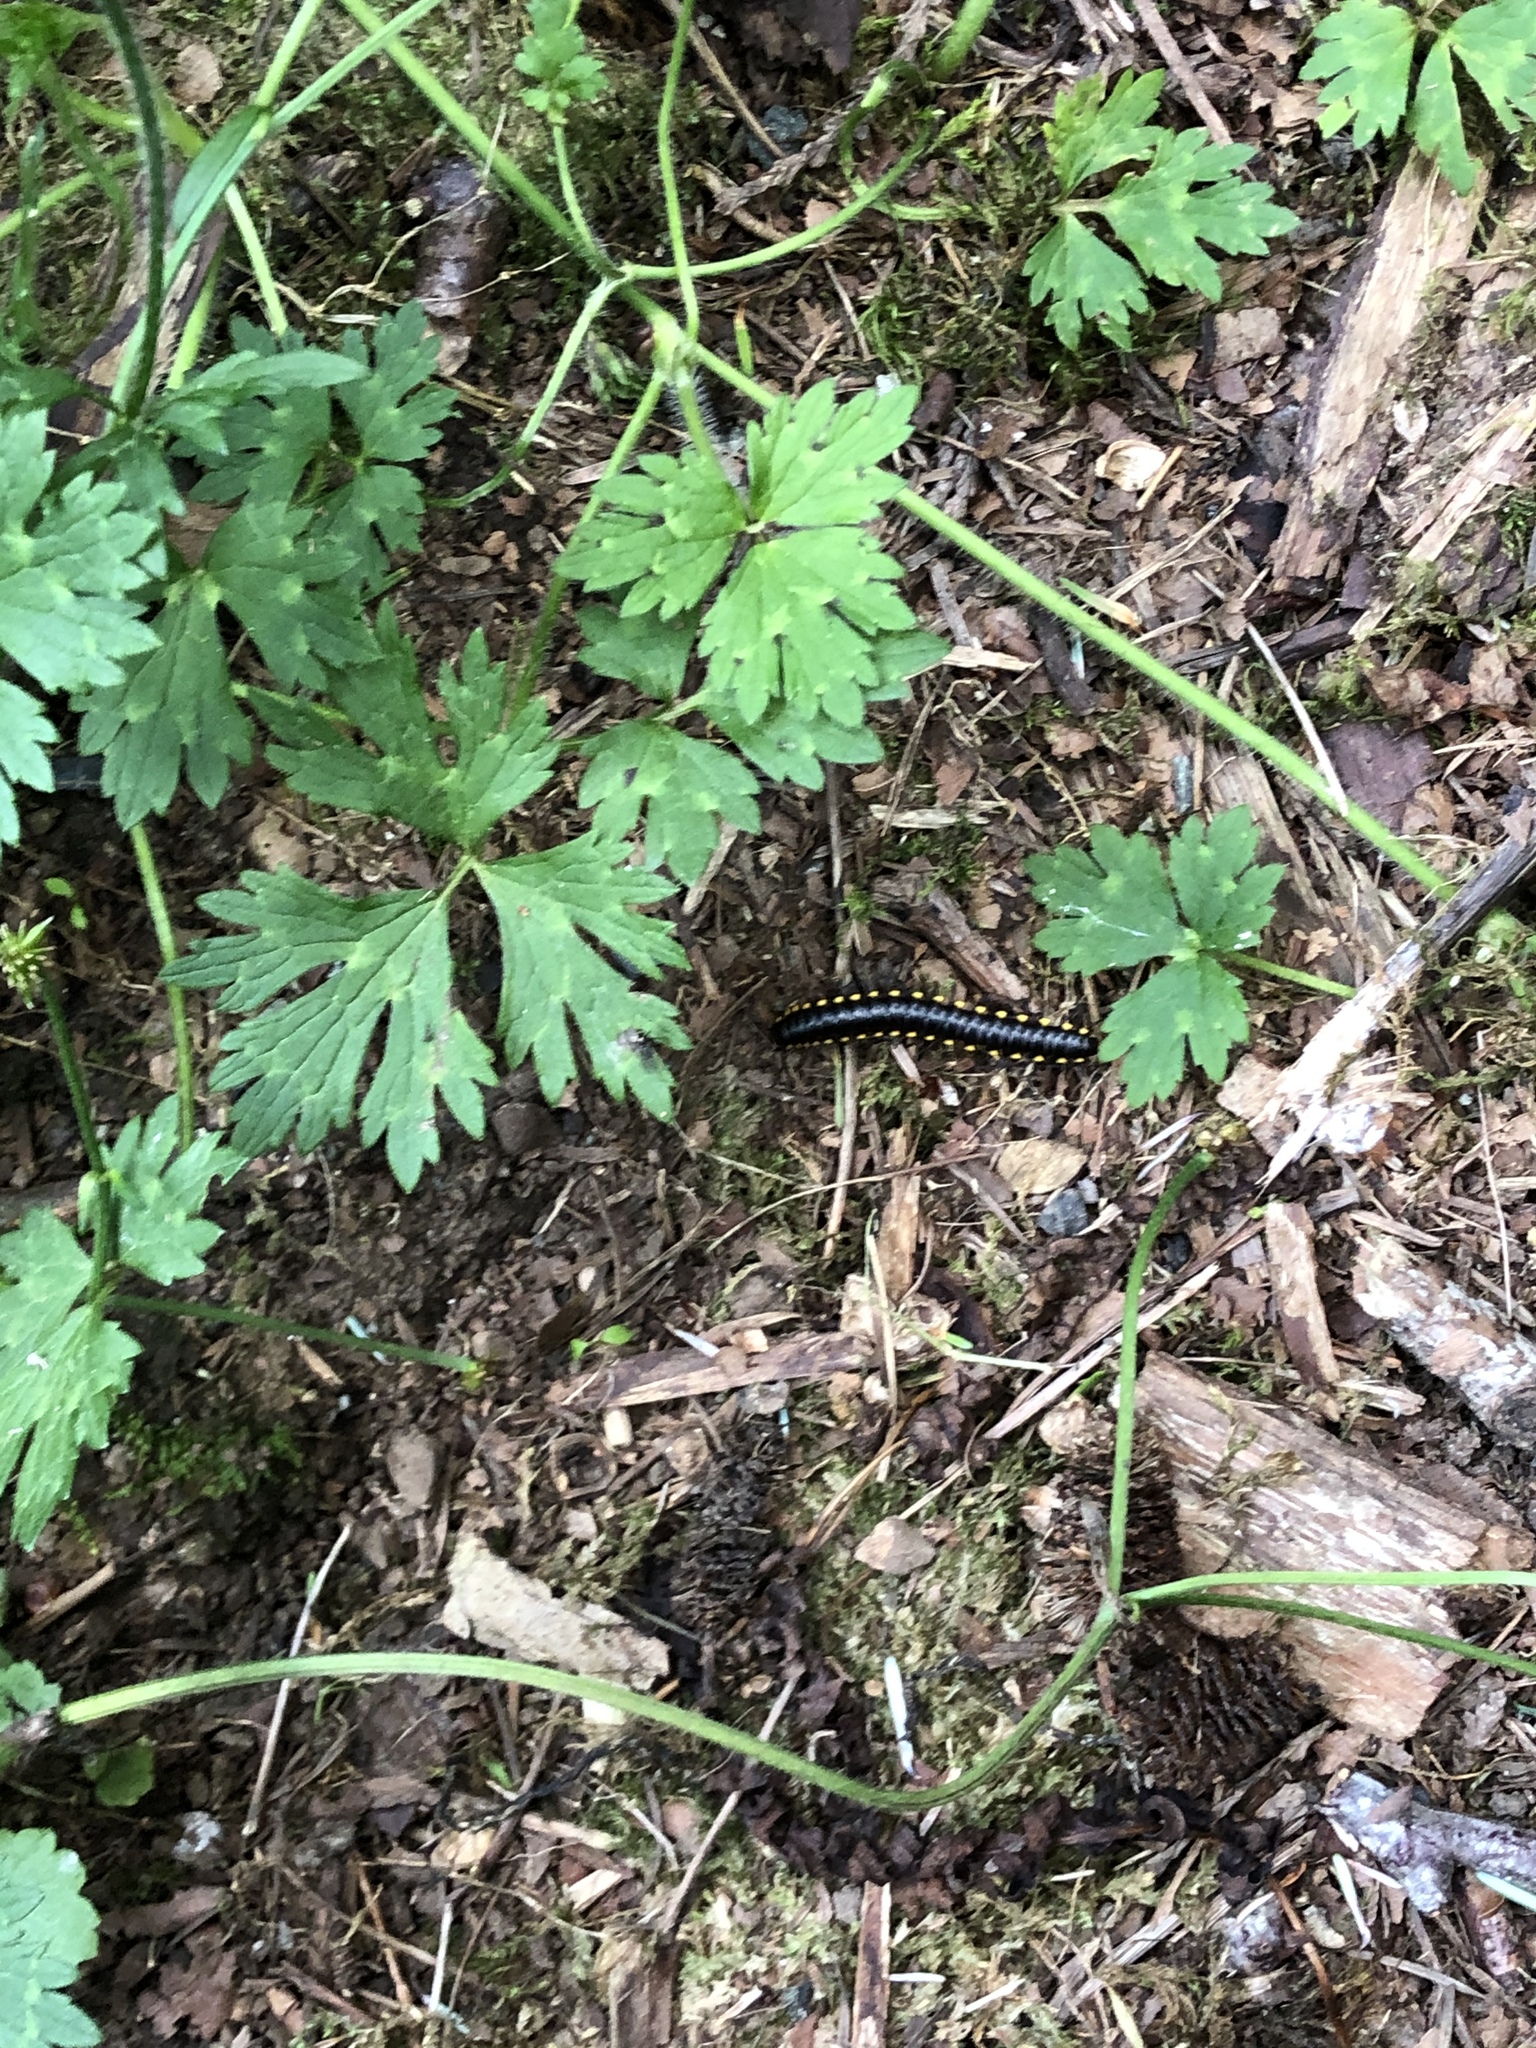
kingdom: Animalia
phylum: Arthropoda
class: Diplopoda
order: Polydesmida
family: Xystodesmidae
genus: Harpaphe
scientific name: Harpaphe haydeniana
